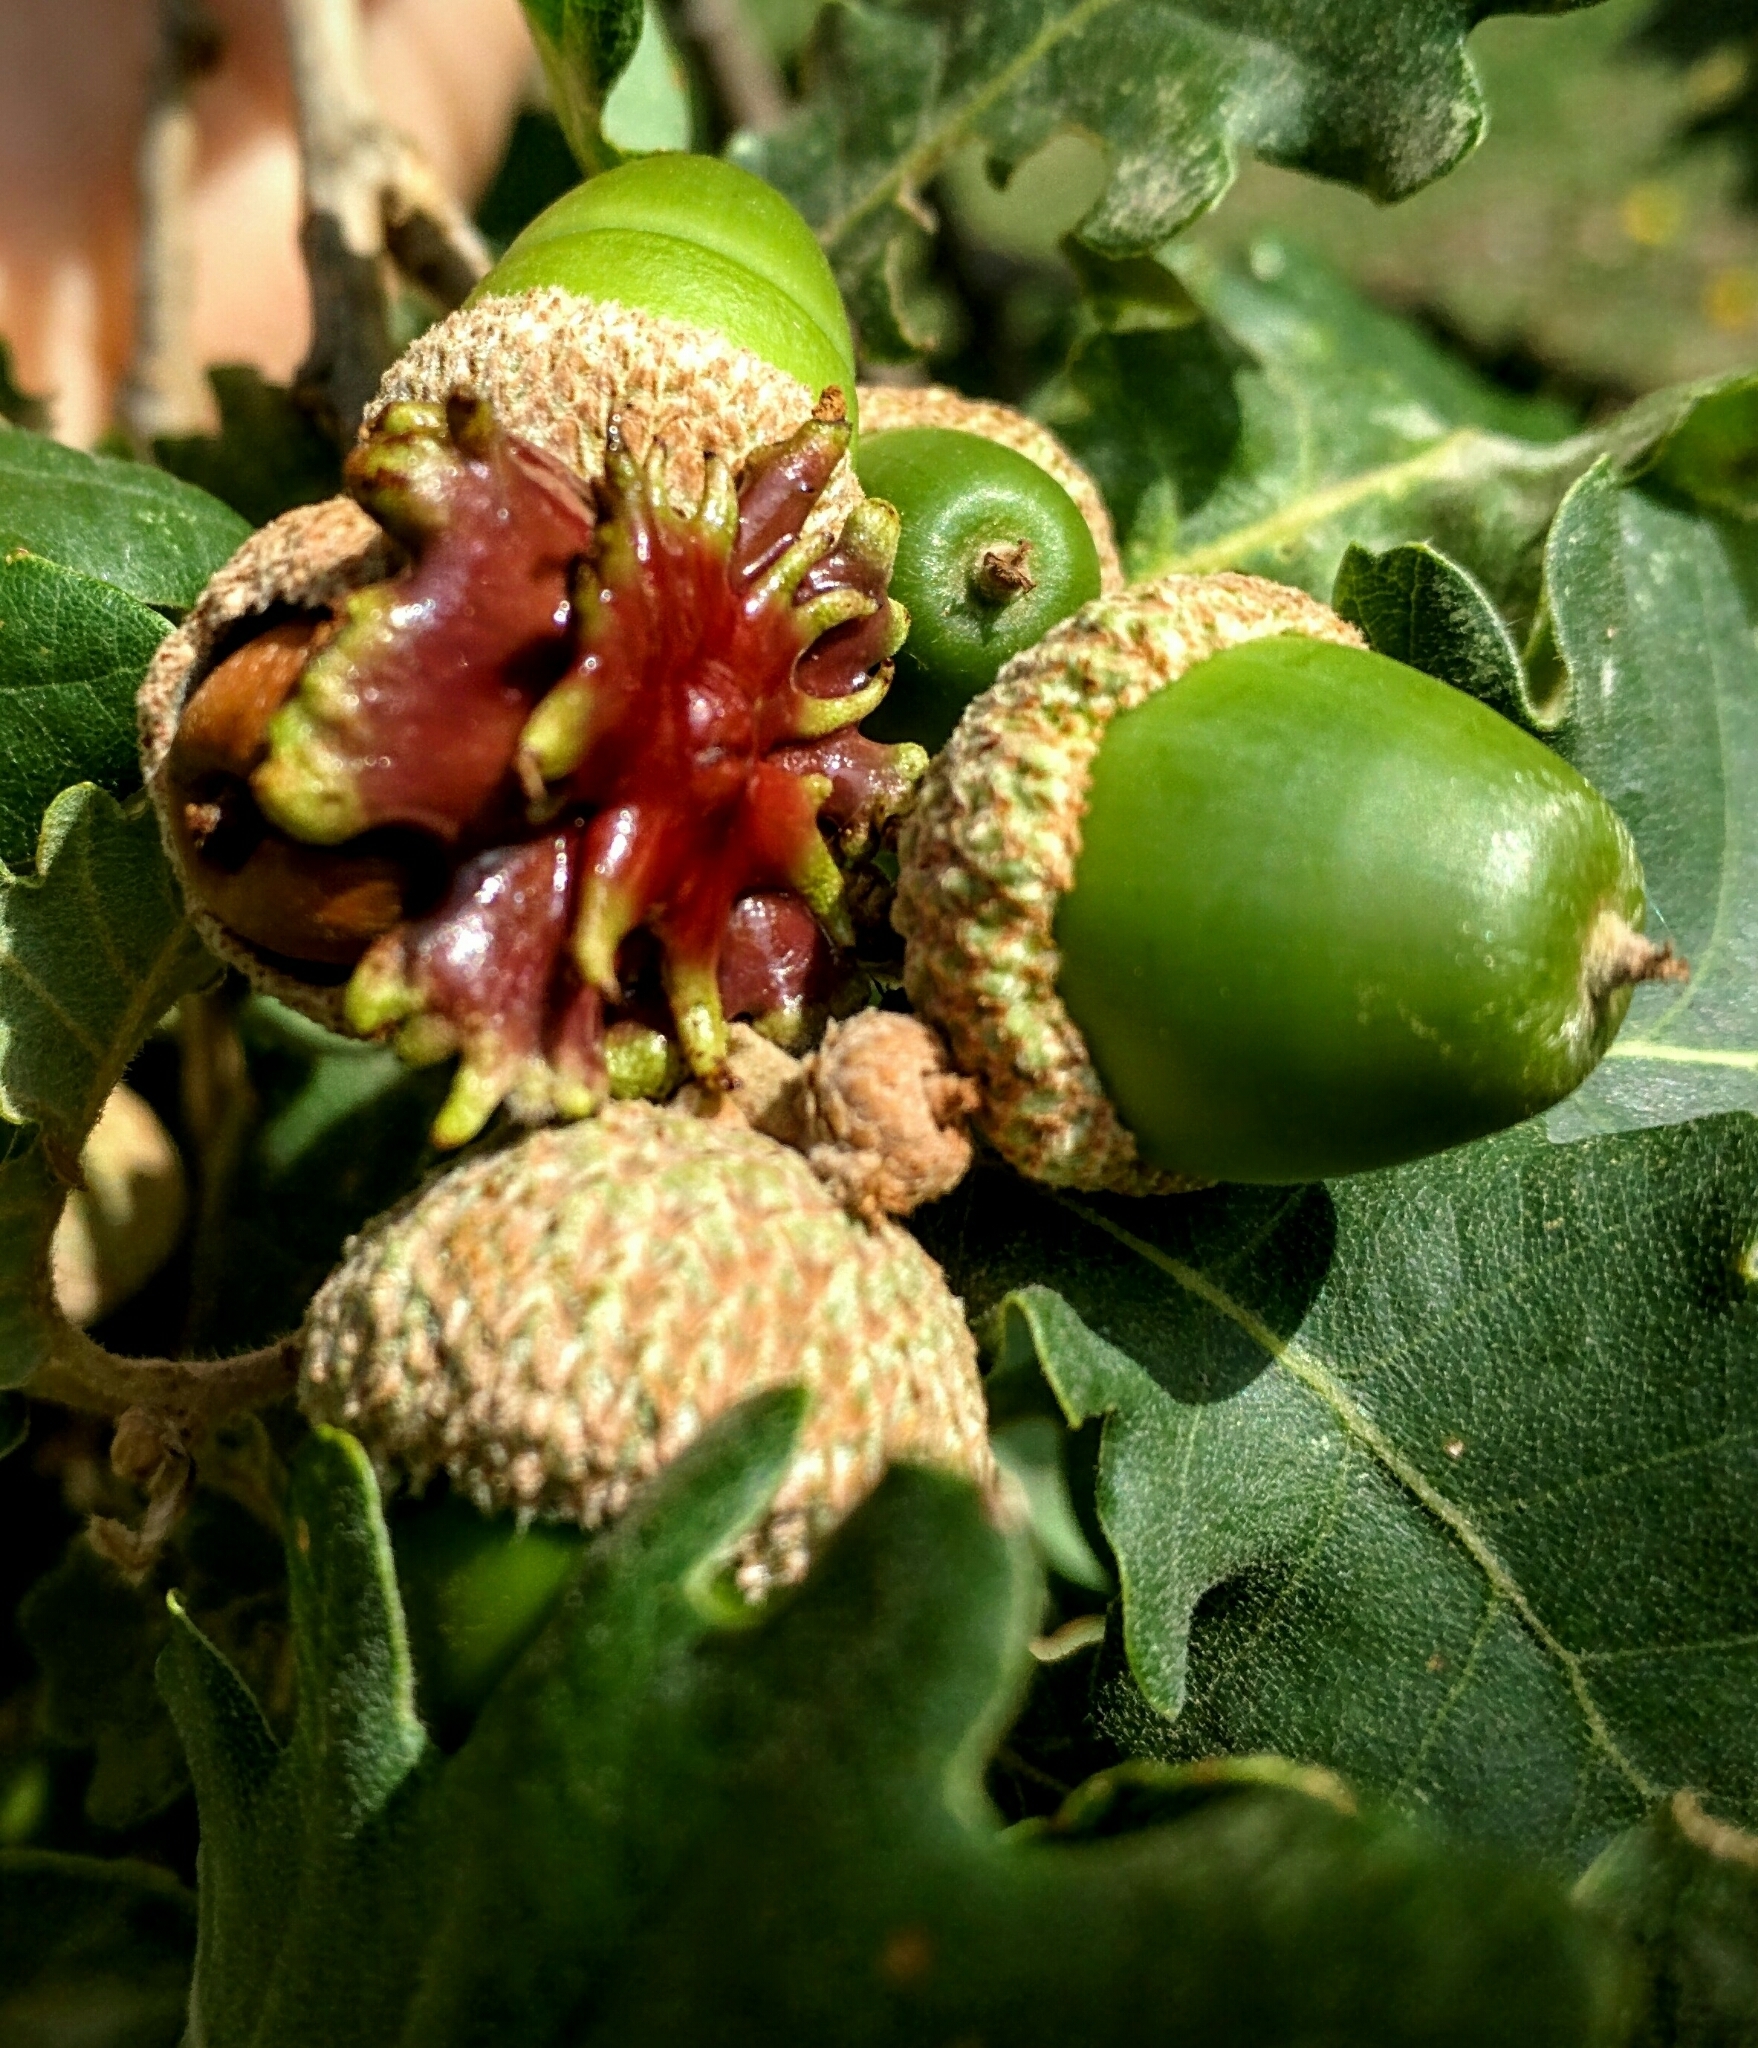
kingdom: Animalia
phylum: Arthropoda
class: Insecta
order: Hymenoptera
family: Cynipidae
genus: Andricus
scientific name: Andricus dentimitratus
